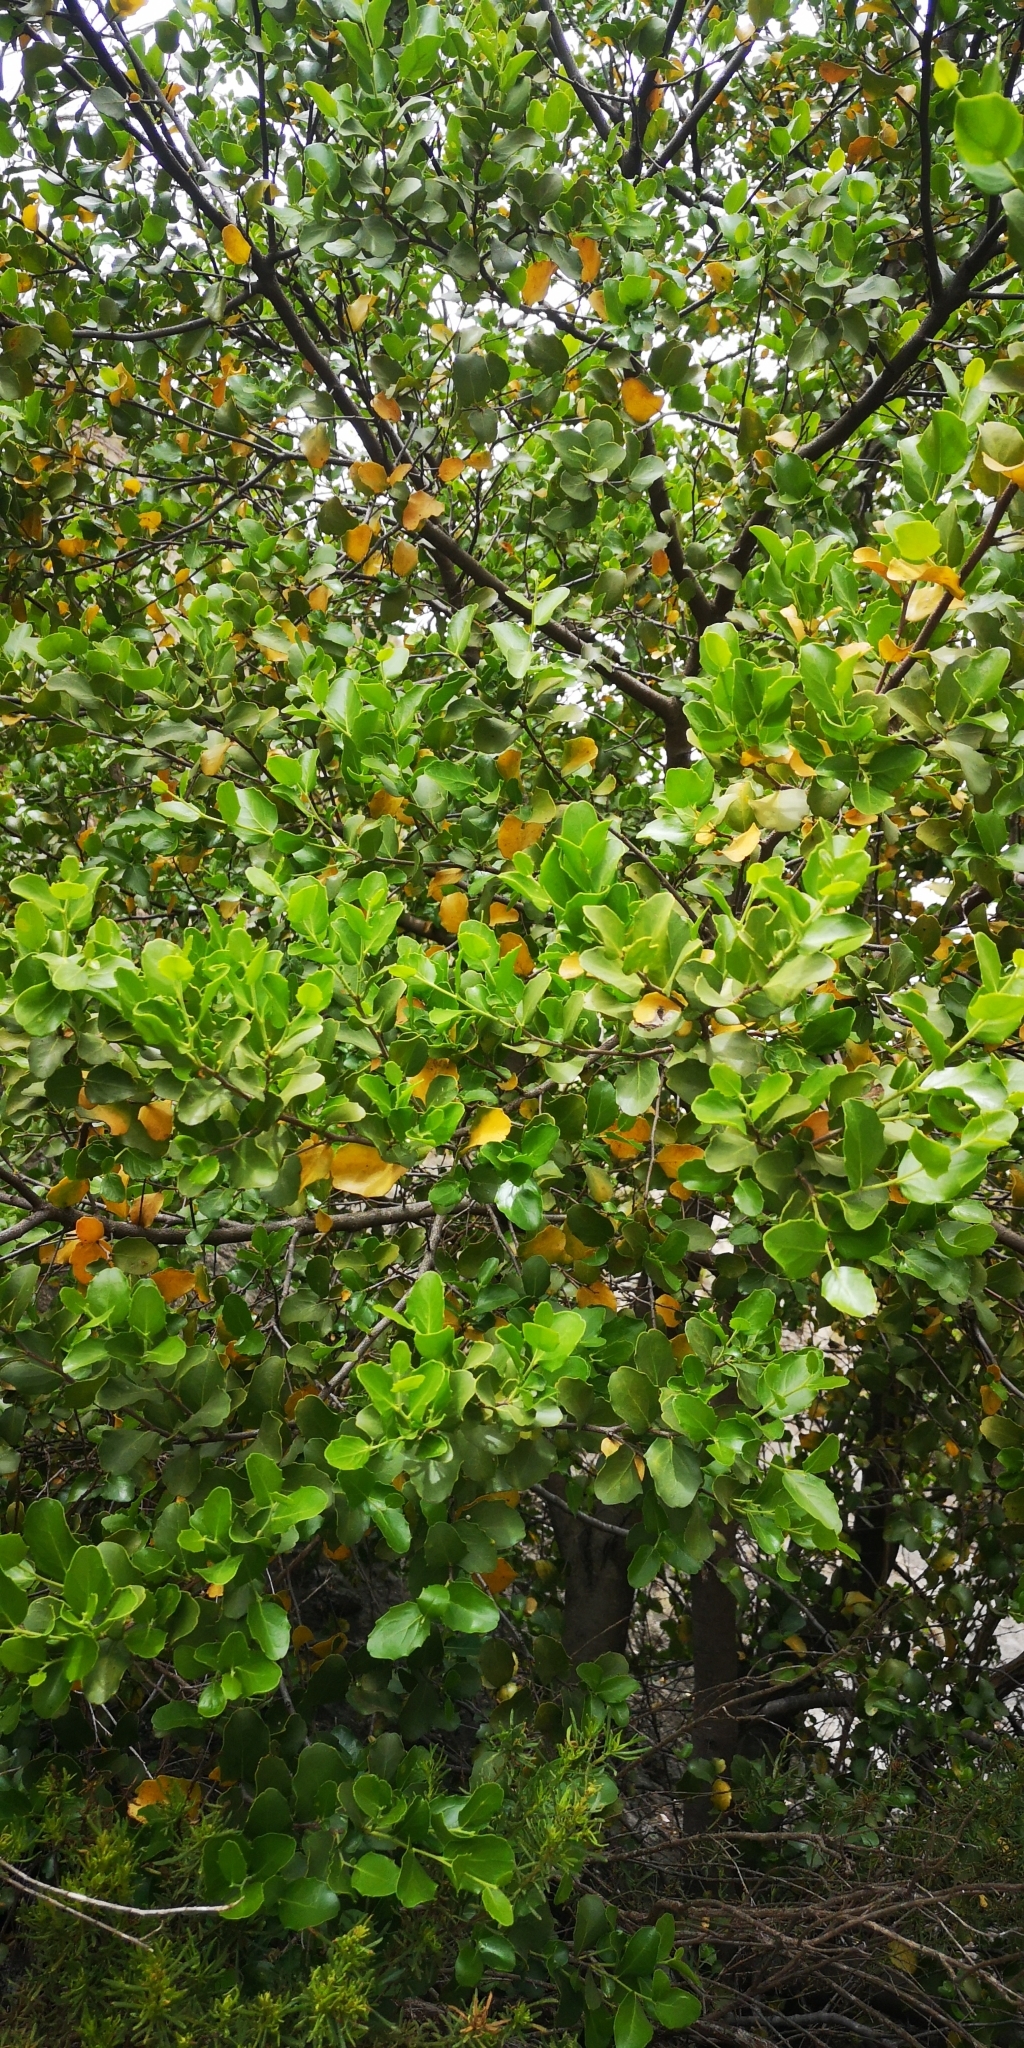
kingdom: Plantae
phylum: Tracheophyta
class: Magnoliopsida
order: Fabales
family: Quillajaceae
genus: Quillaja
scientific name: Quillaja saponaria
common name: Murillo's-bark
